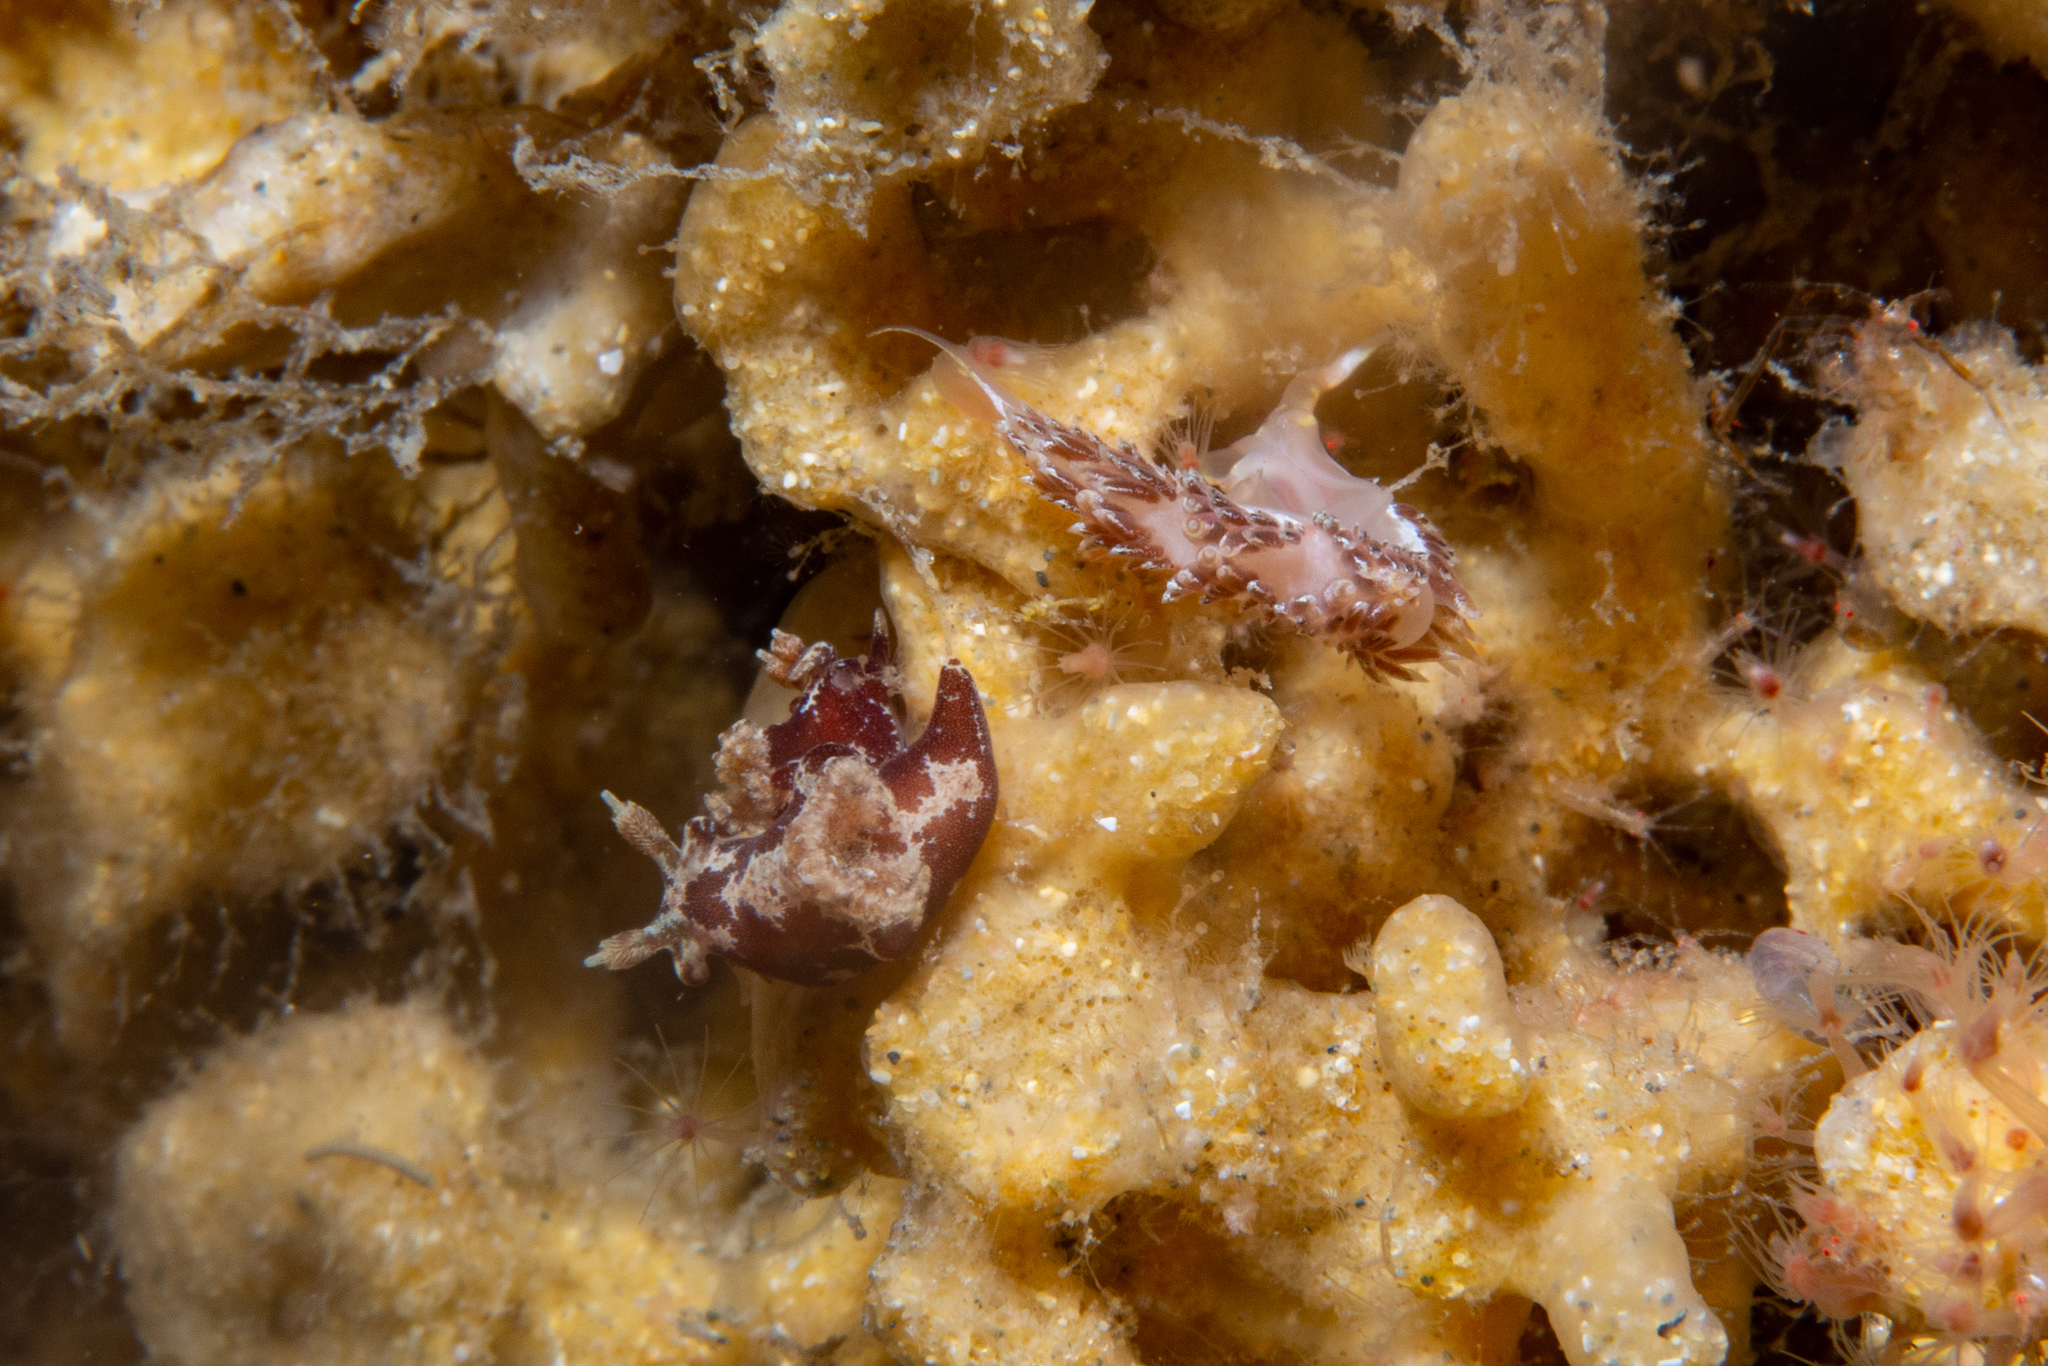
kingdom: Animalia
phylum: Mollusca
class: Gastropoda
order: Nudibranchia
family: Goniodorididae
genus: Trapania
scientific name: Trapania brunnea
